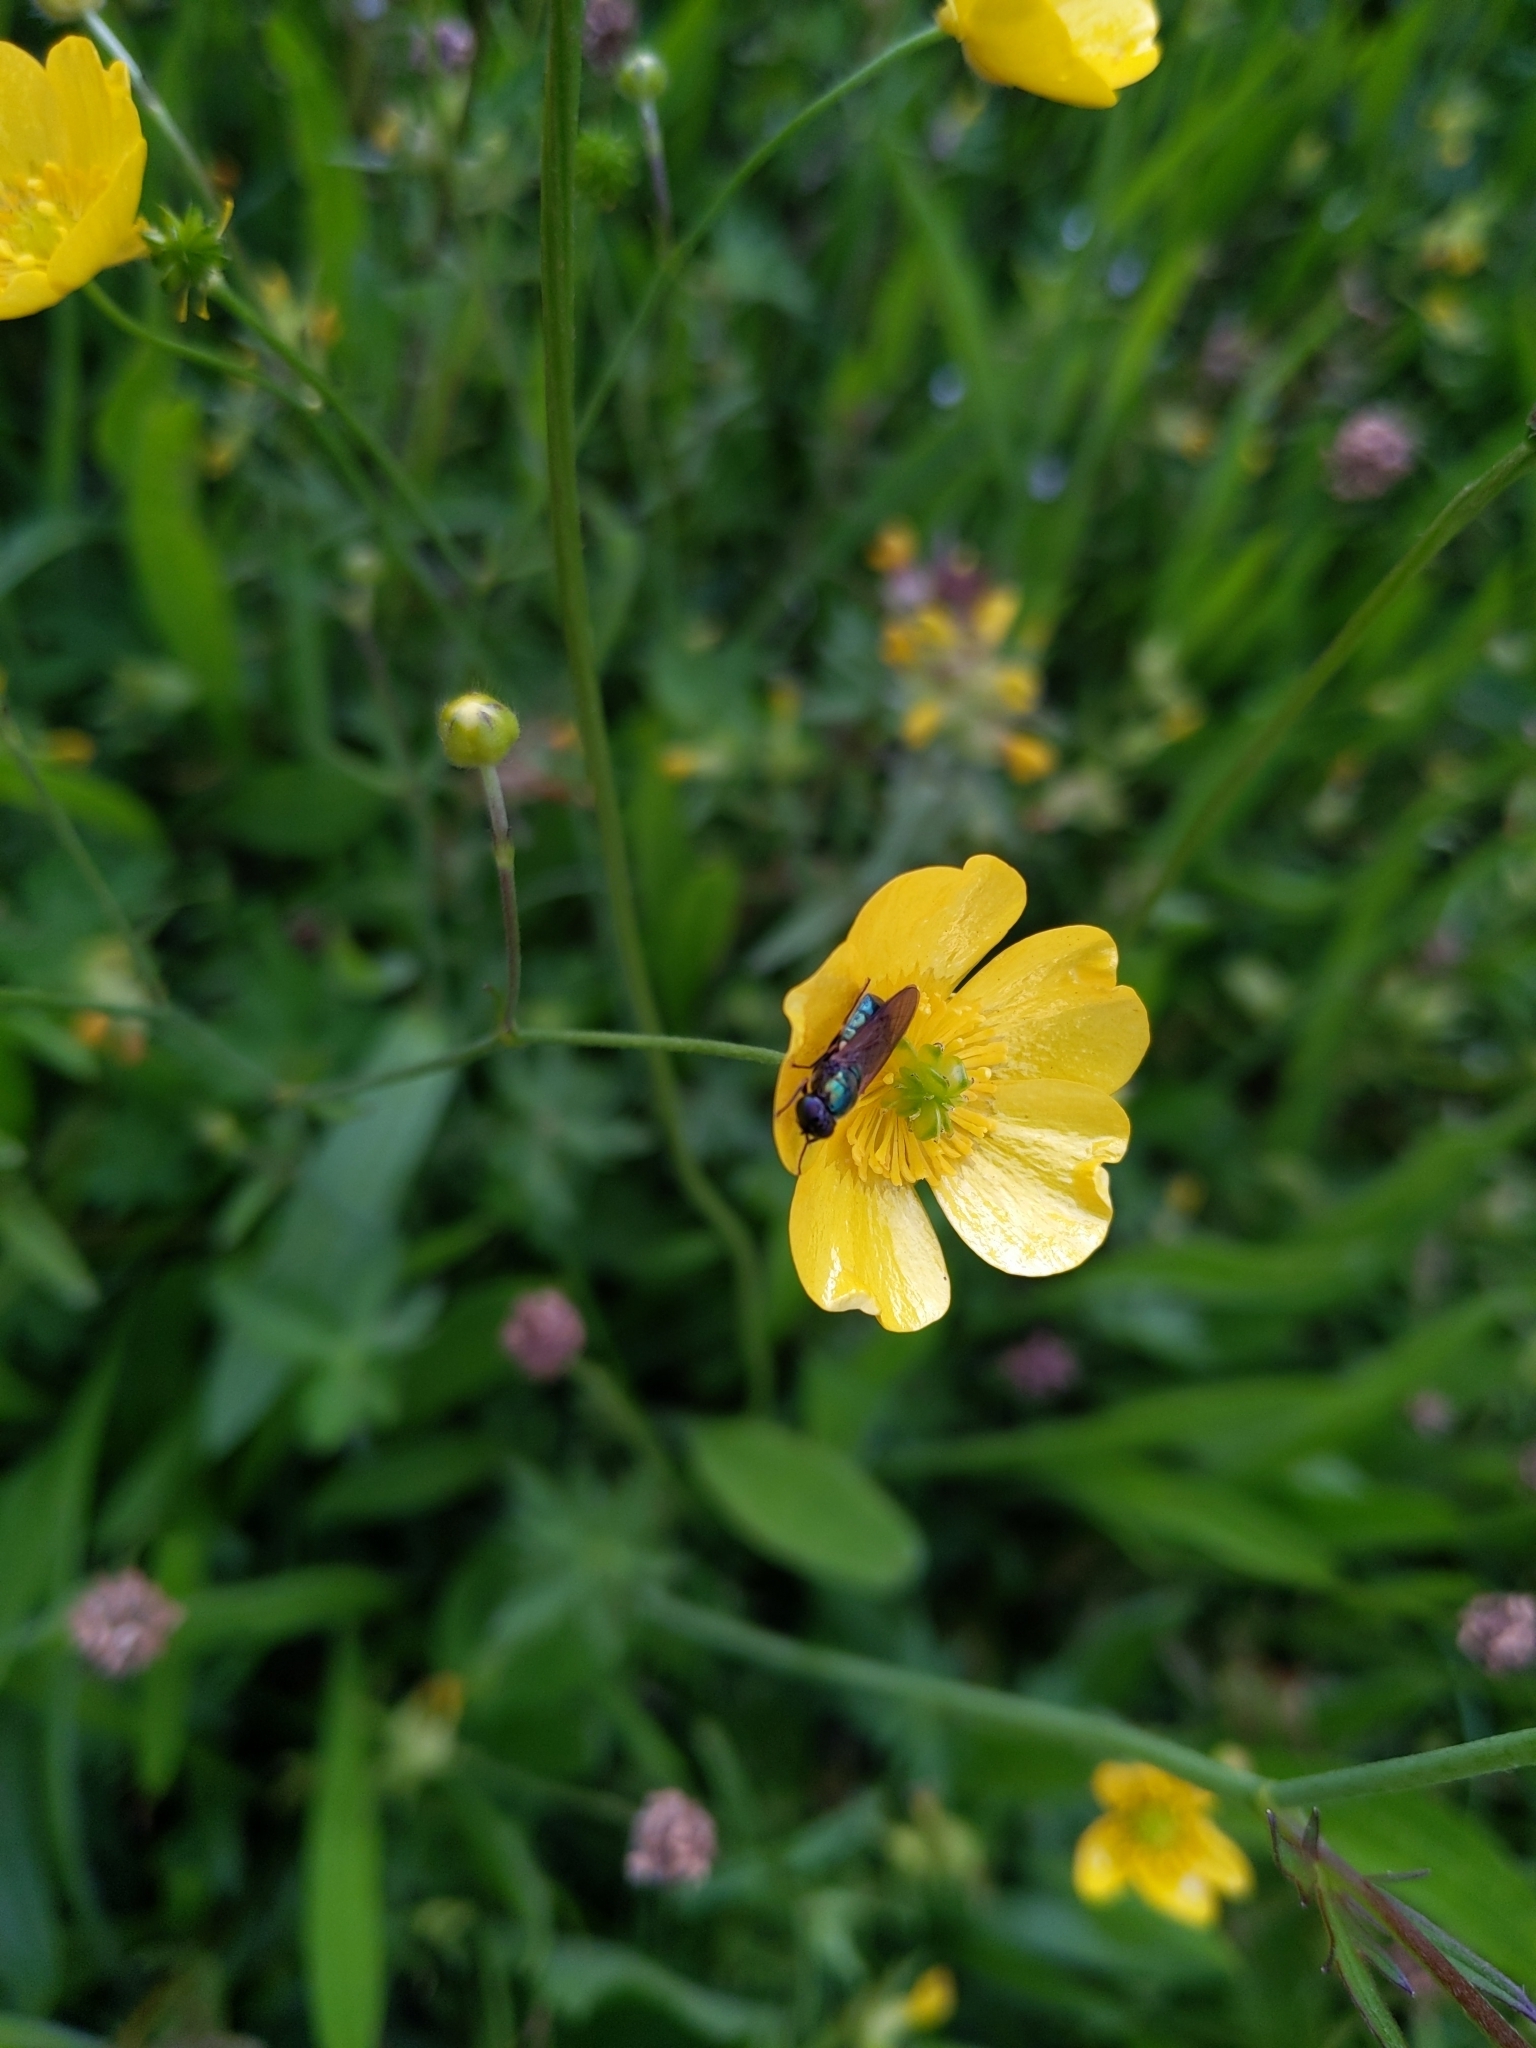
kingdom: Animalia
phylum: Arthropoda
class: Insecta
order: Diptera
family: Stratiomyidae
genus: Chloromyia
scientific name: Chloromyia formosa
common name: Soldier fly
